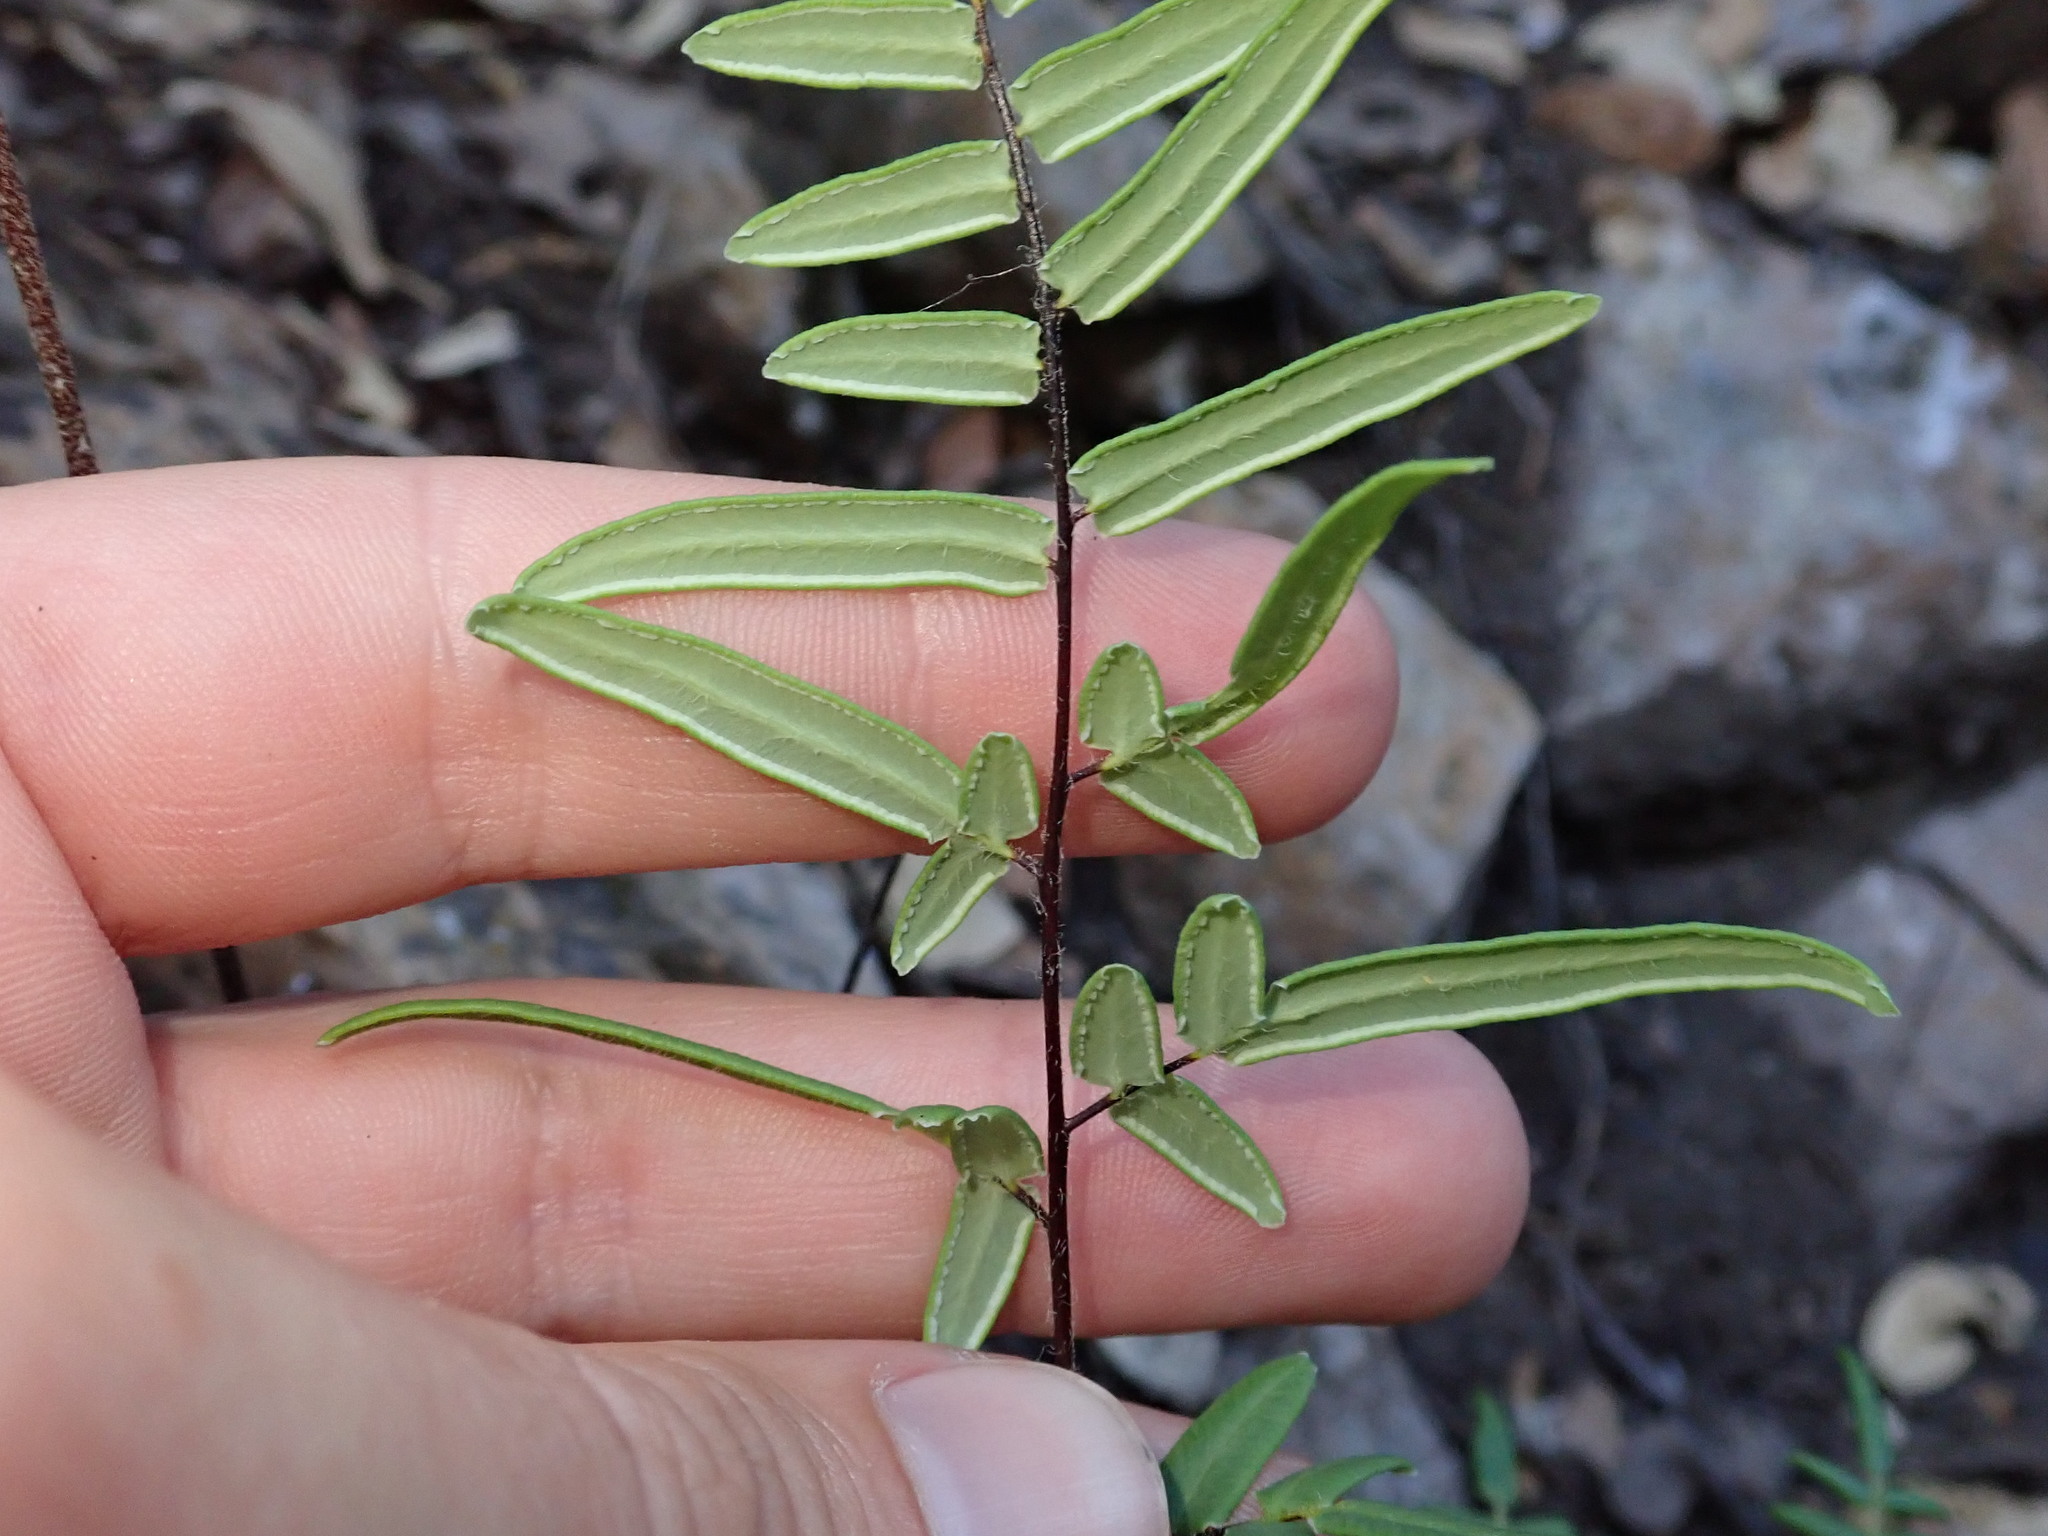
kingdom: Plantae
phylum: Tracheophyta
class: Polypodiopsida
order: Polypodiales
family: Pteridaceae
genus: Pellaea
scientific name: Pellaea atropurpurea
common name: Hairy cliffbrake
